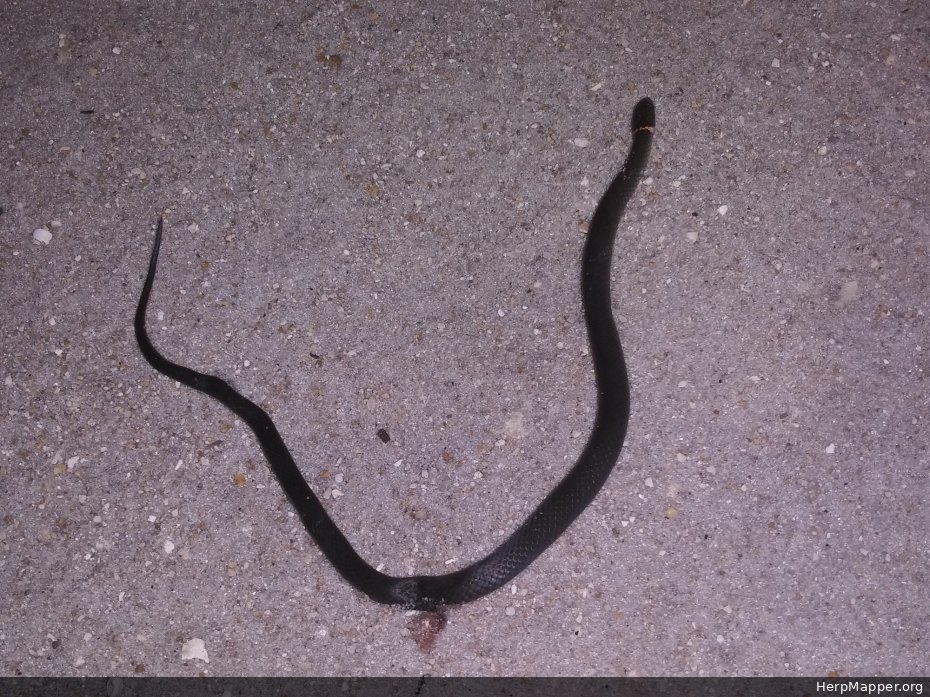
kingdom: Animalia
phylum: Chordata
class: Squamata
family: Colubridae
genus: Diadophis
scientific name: Diadophis punctatus
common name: Ringneck snake
